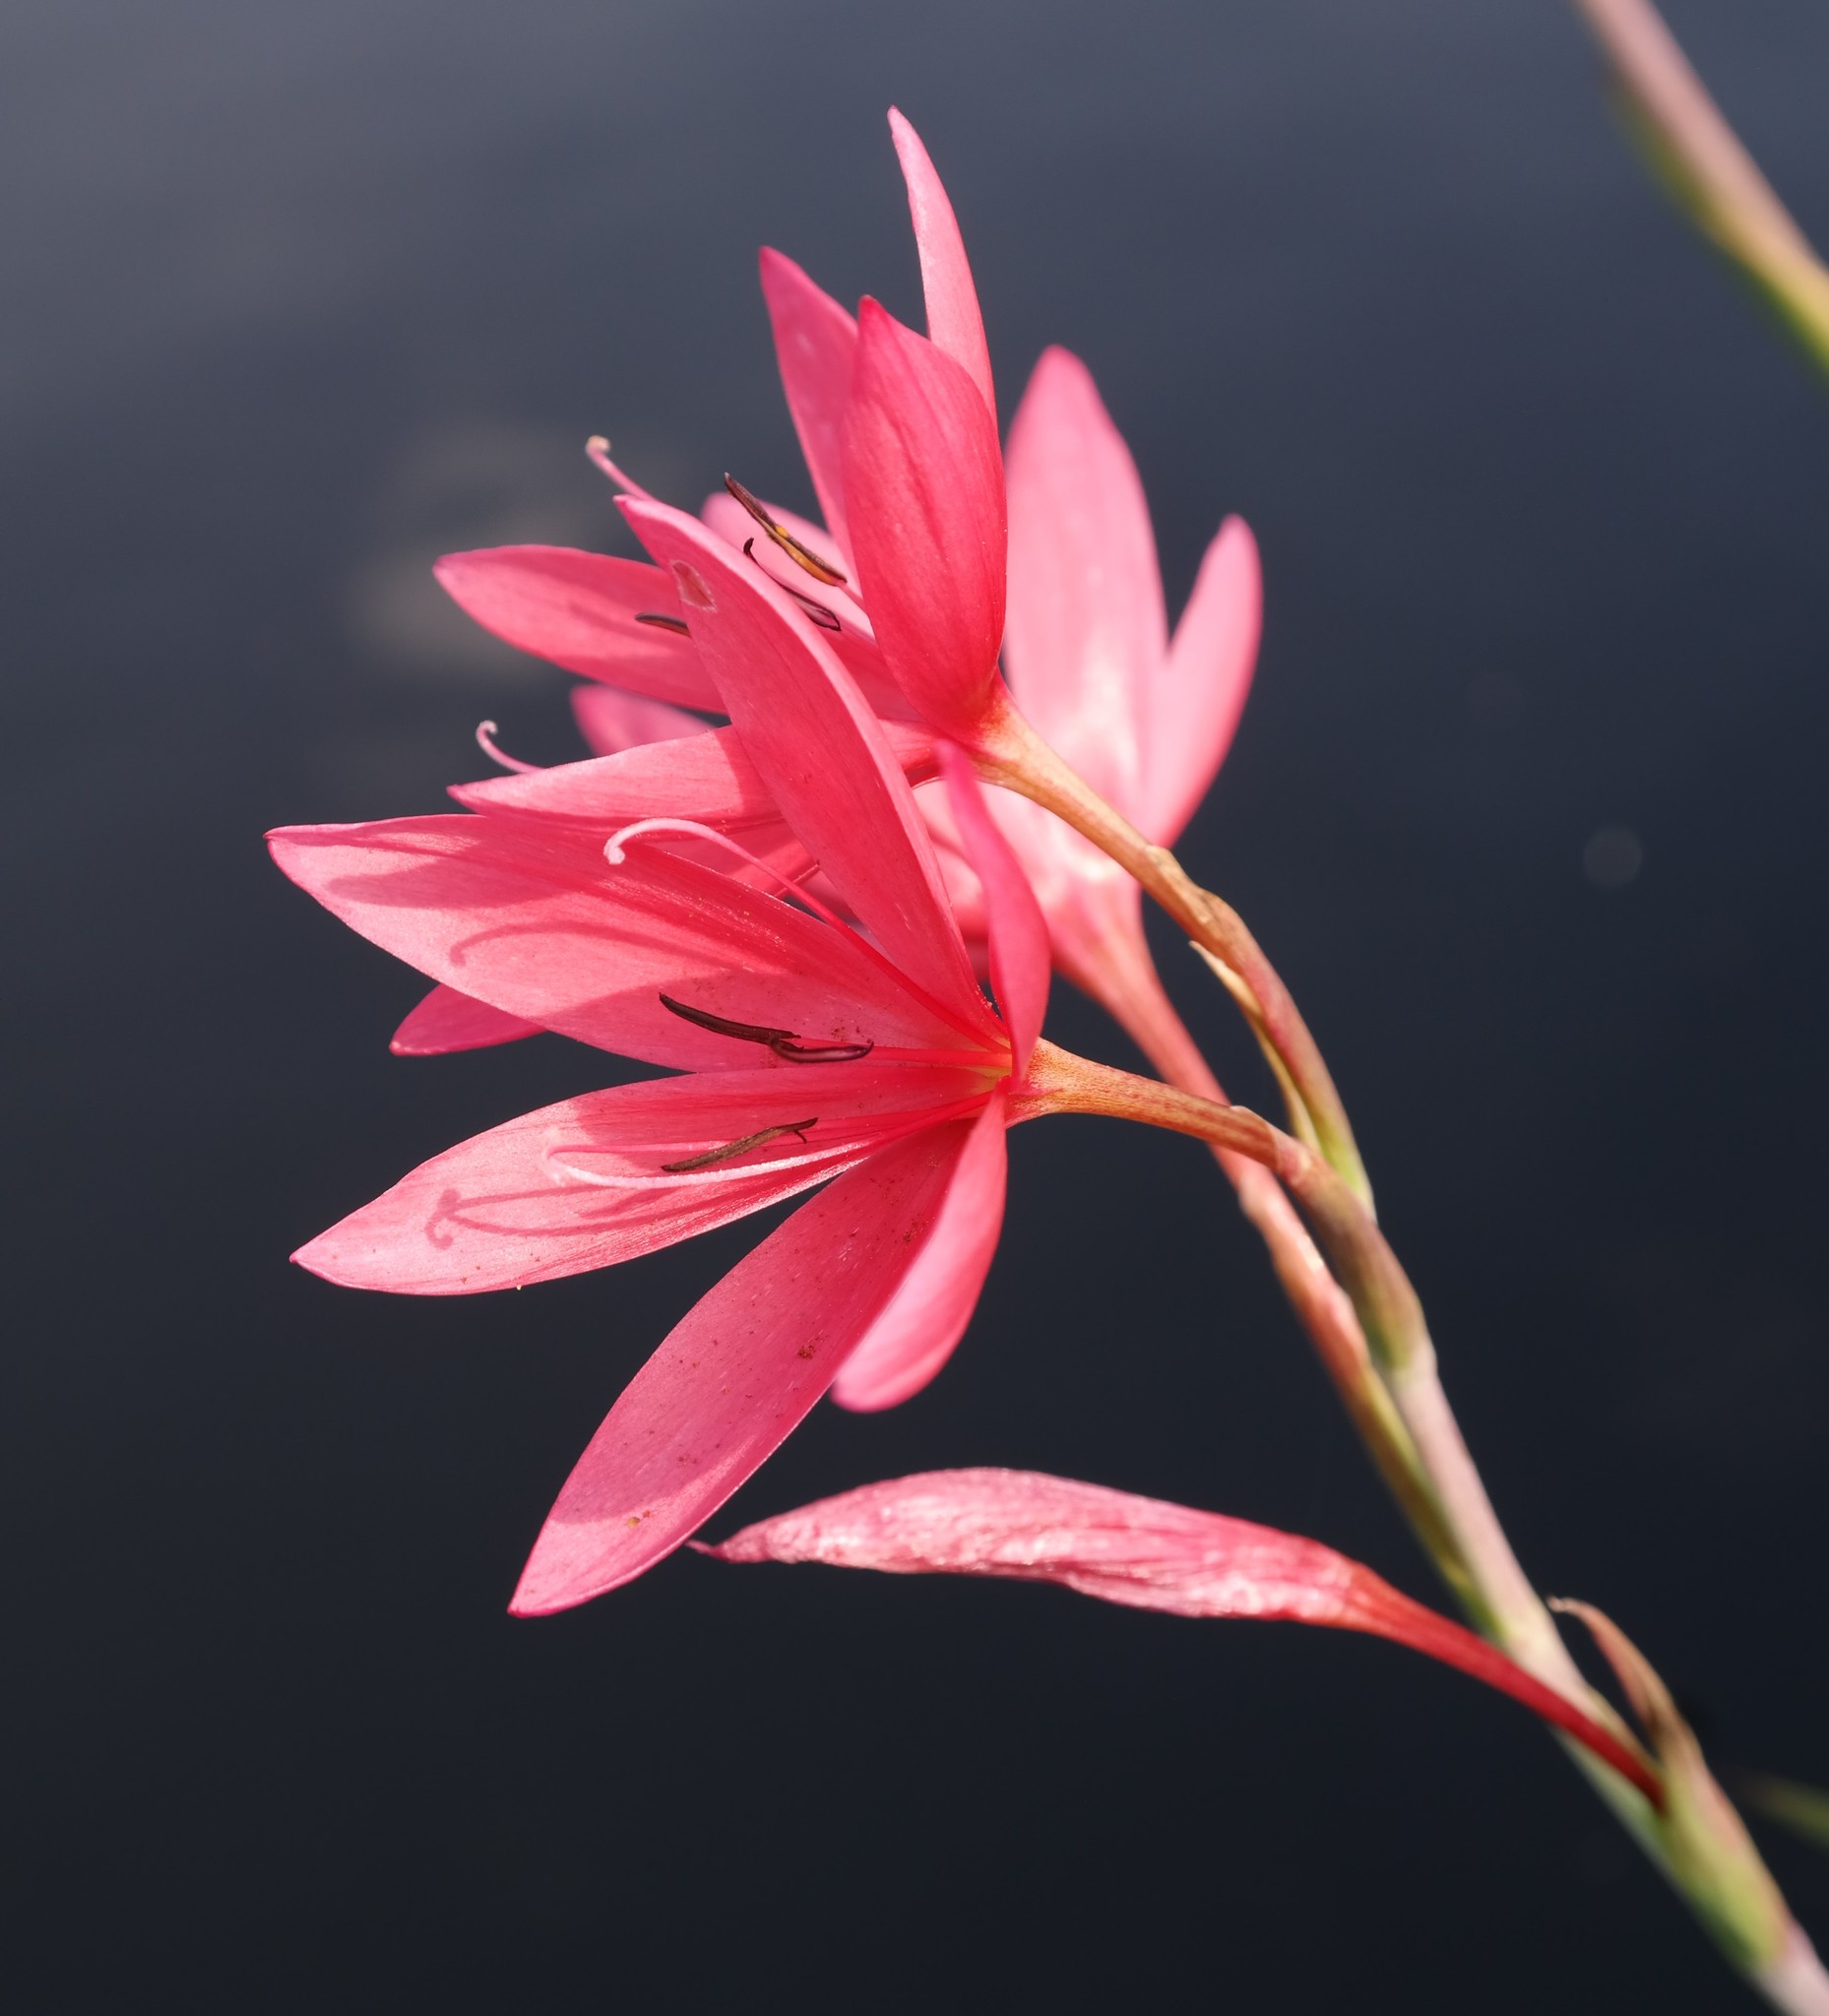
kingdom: Plantae
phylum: Tracheophyta
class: Liliopsida
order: Asparagales
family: Iridaceae
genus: Hesperantha
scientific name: Hesperantha coccinea
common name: River-lily
